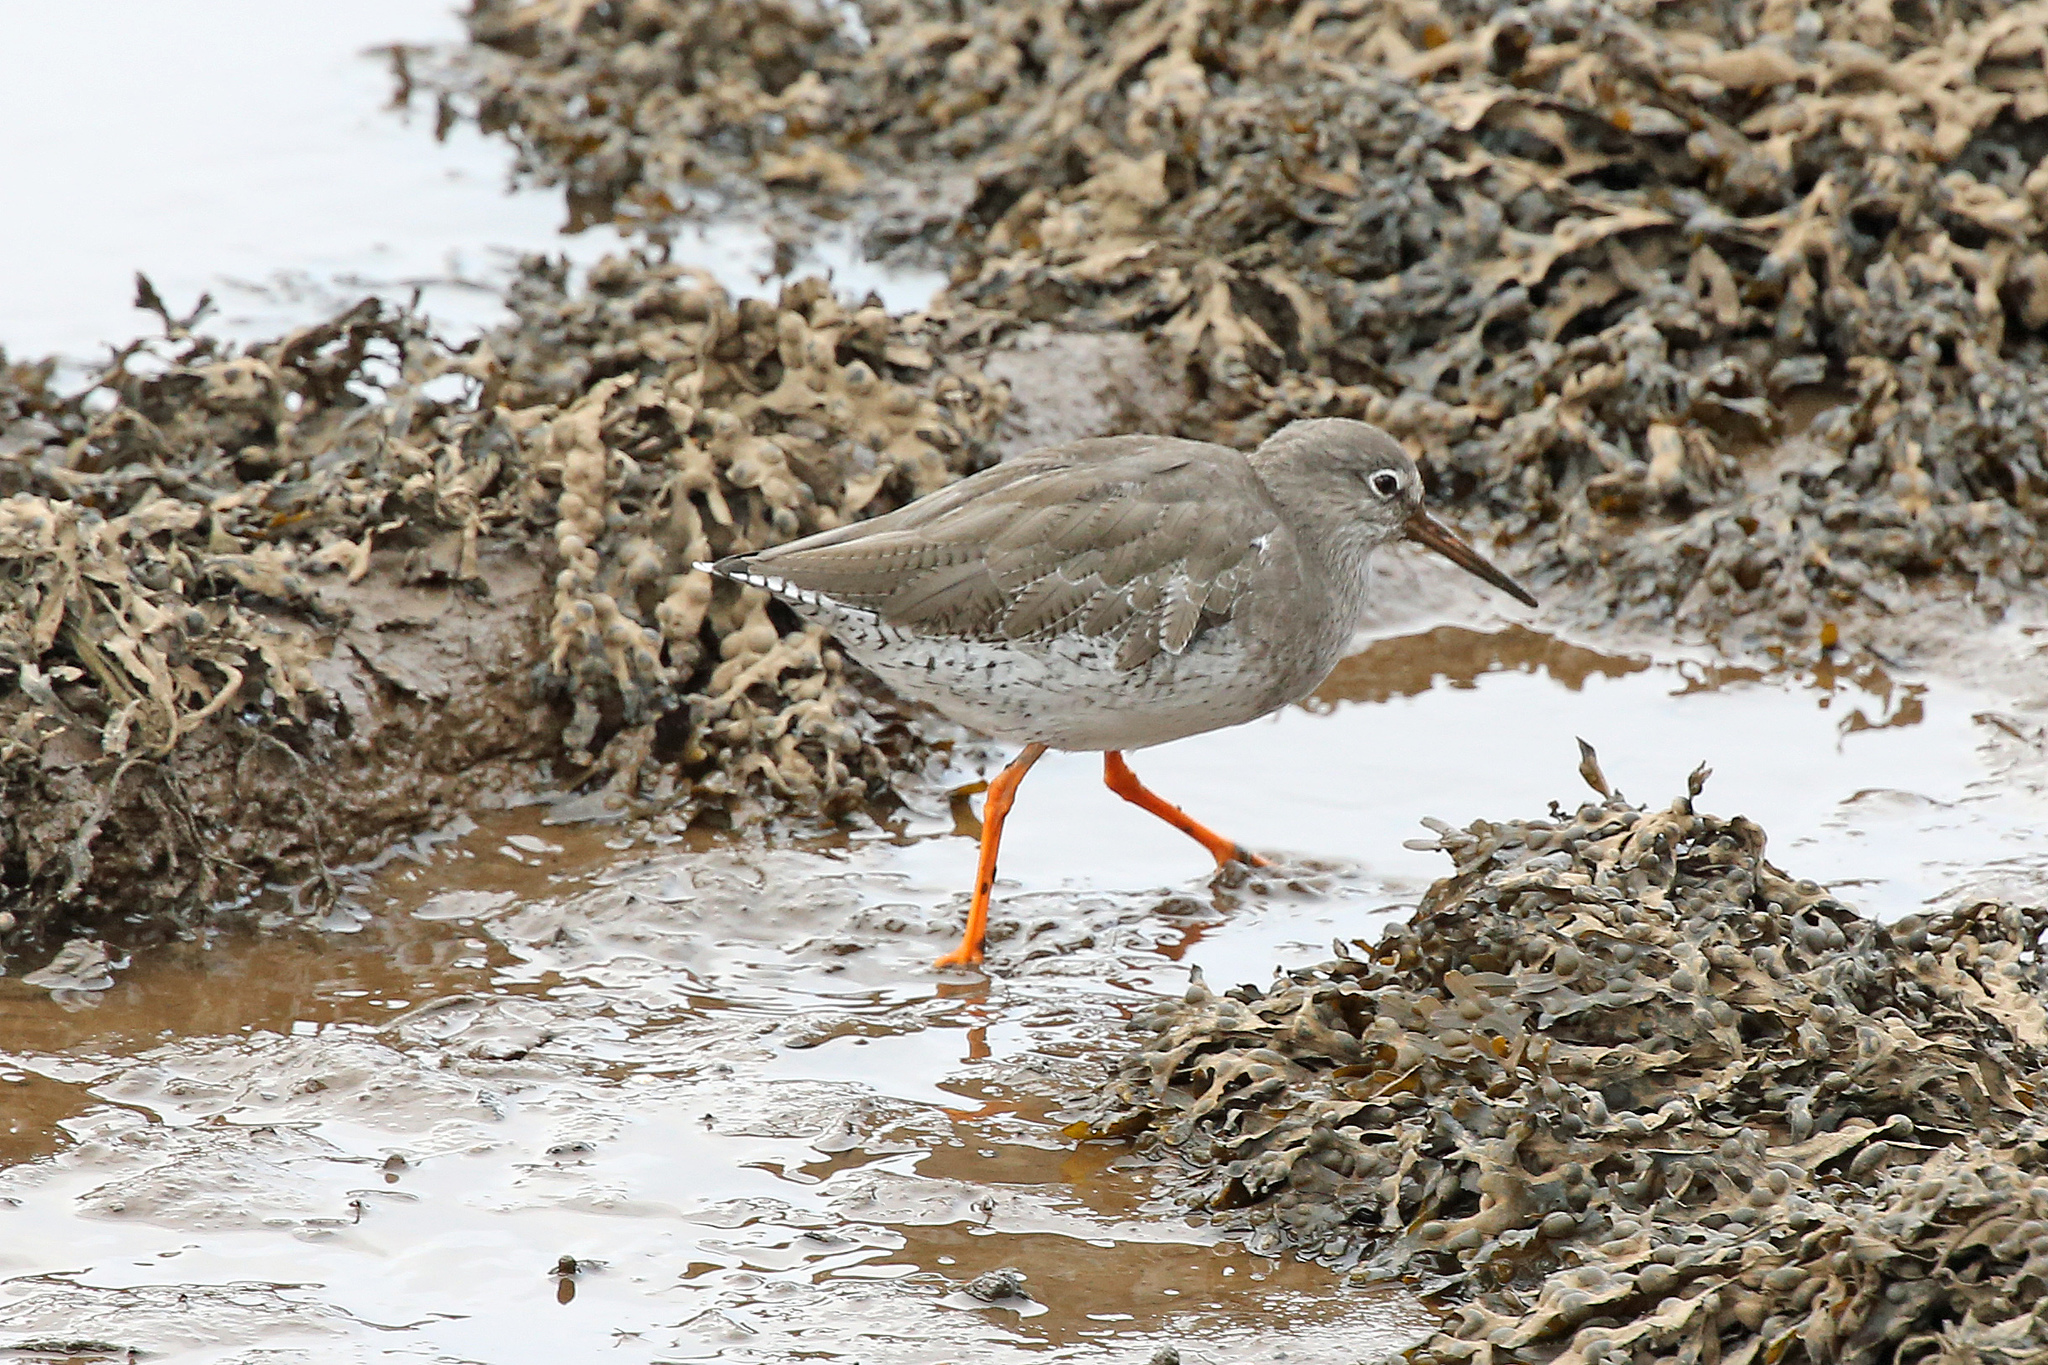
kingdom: Animalia
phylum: Chordata
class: Aves
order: Charadriiformes
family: Scolopacidae
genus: Tringa
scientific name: Tringa totanus
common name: Common redshank
